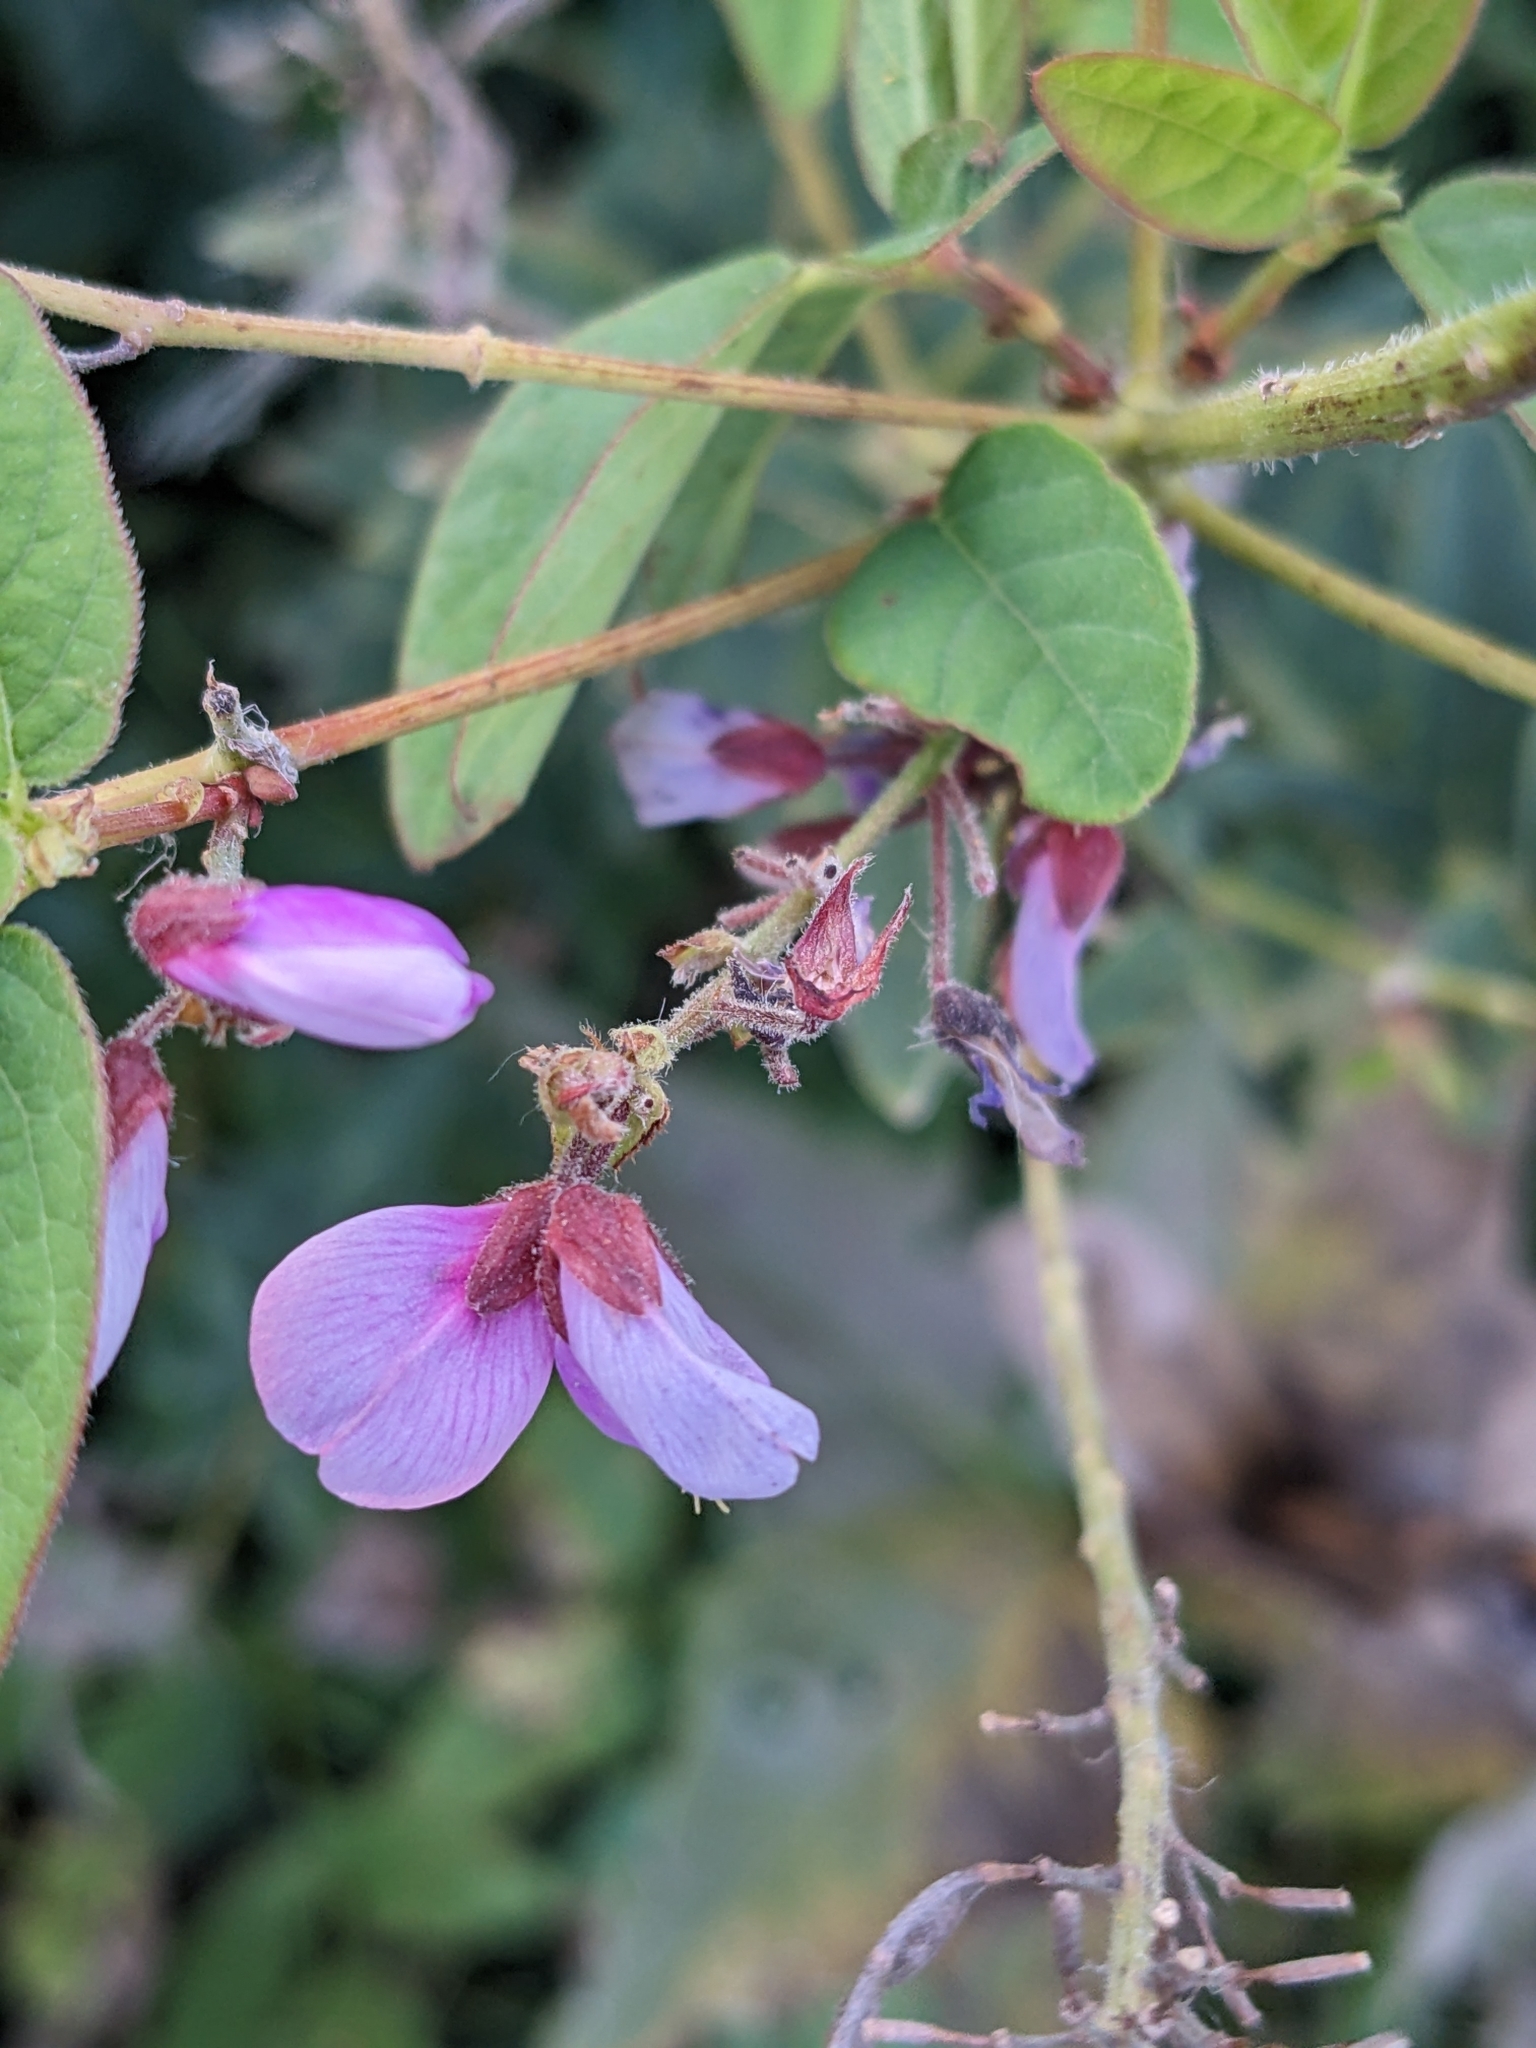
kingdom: Plantae
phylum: Tracheophyta
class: Magnoliopsida
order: Fabales
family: Fabaceae
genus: Desmodium
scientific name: Desmodium canadense
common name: Canada tick-trefoil
